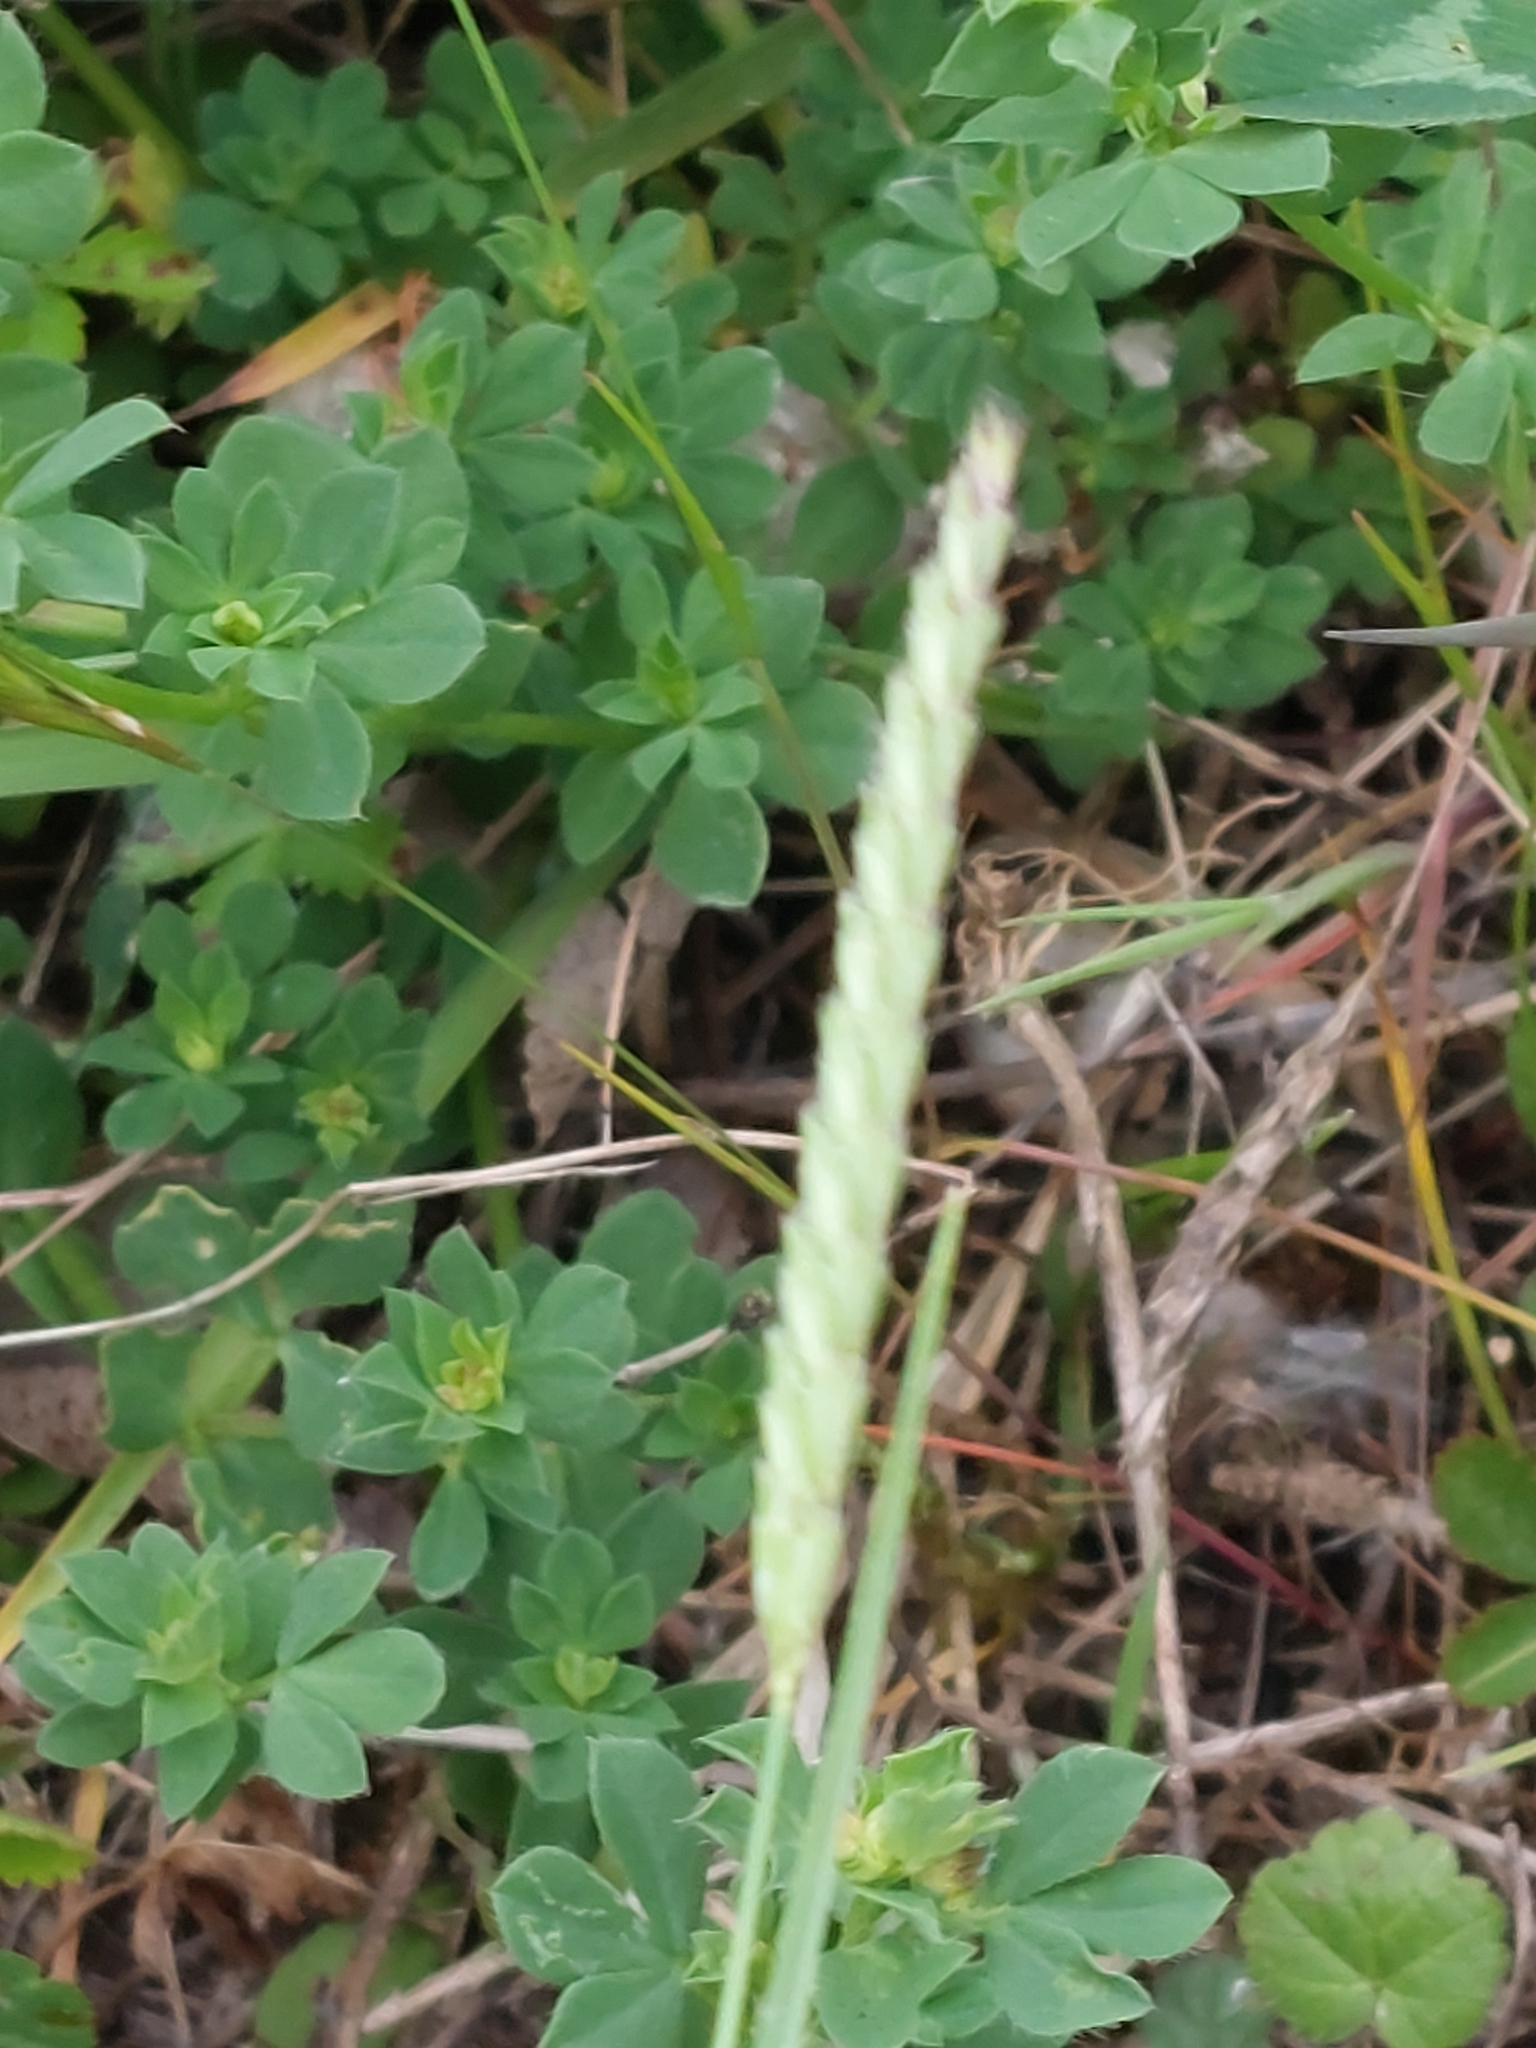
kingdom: Plantae
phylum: Tracheophyta
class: Liliopsida
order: Poales
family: Poaceae
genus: Cynosurus
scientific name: Cynosurus cristatus
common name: Crested dog's-tail
